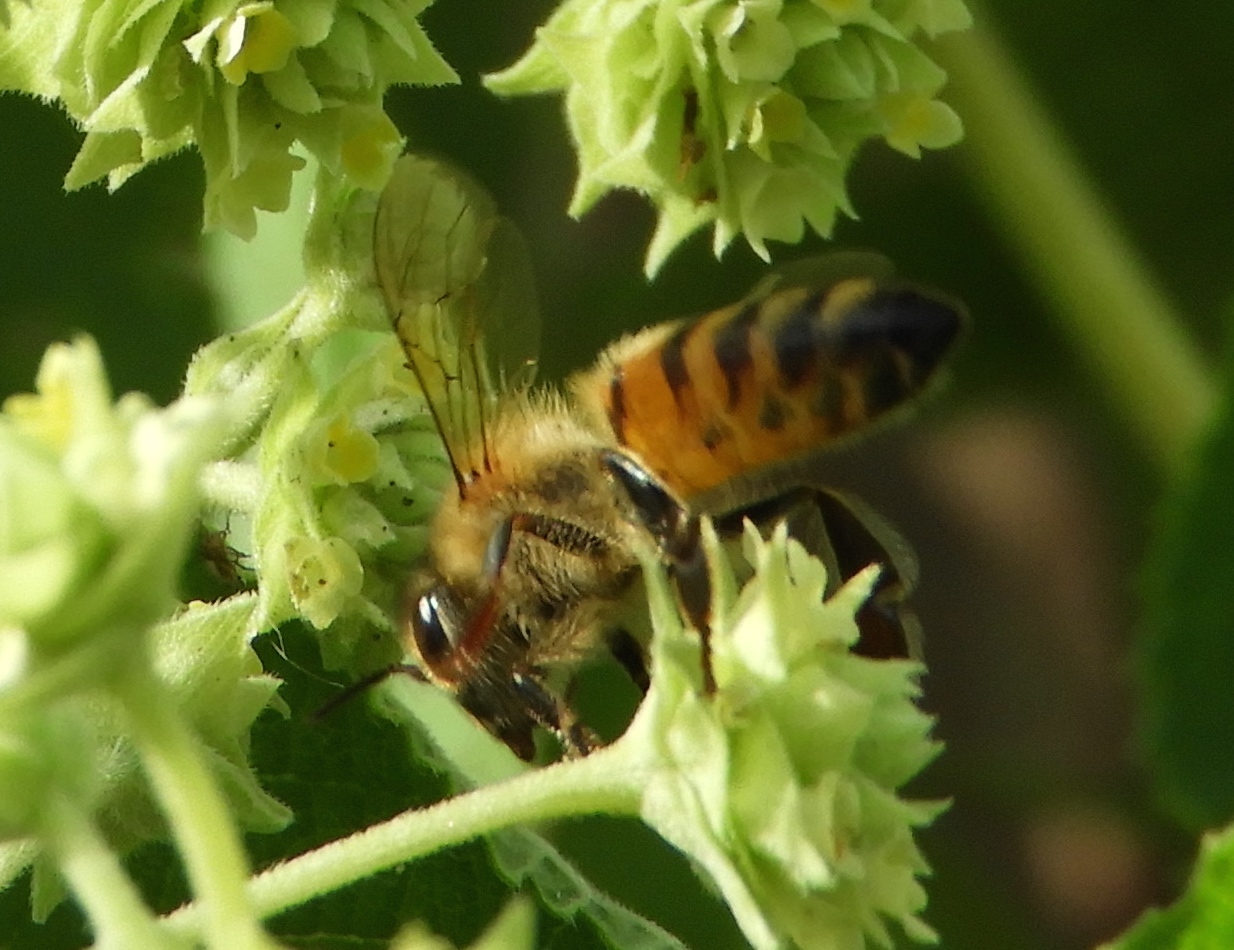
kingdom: Animalia
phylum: Arthropoda
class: Insecta
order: Hymenoptera
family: Apidae
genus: Apis
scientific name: Apis mellifera
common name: Honey bee
